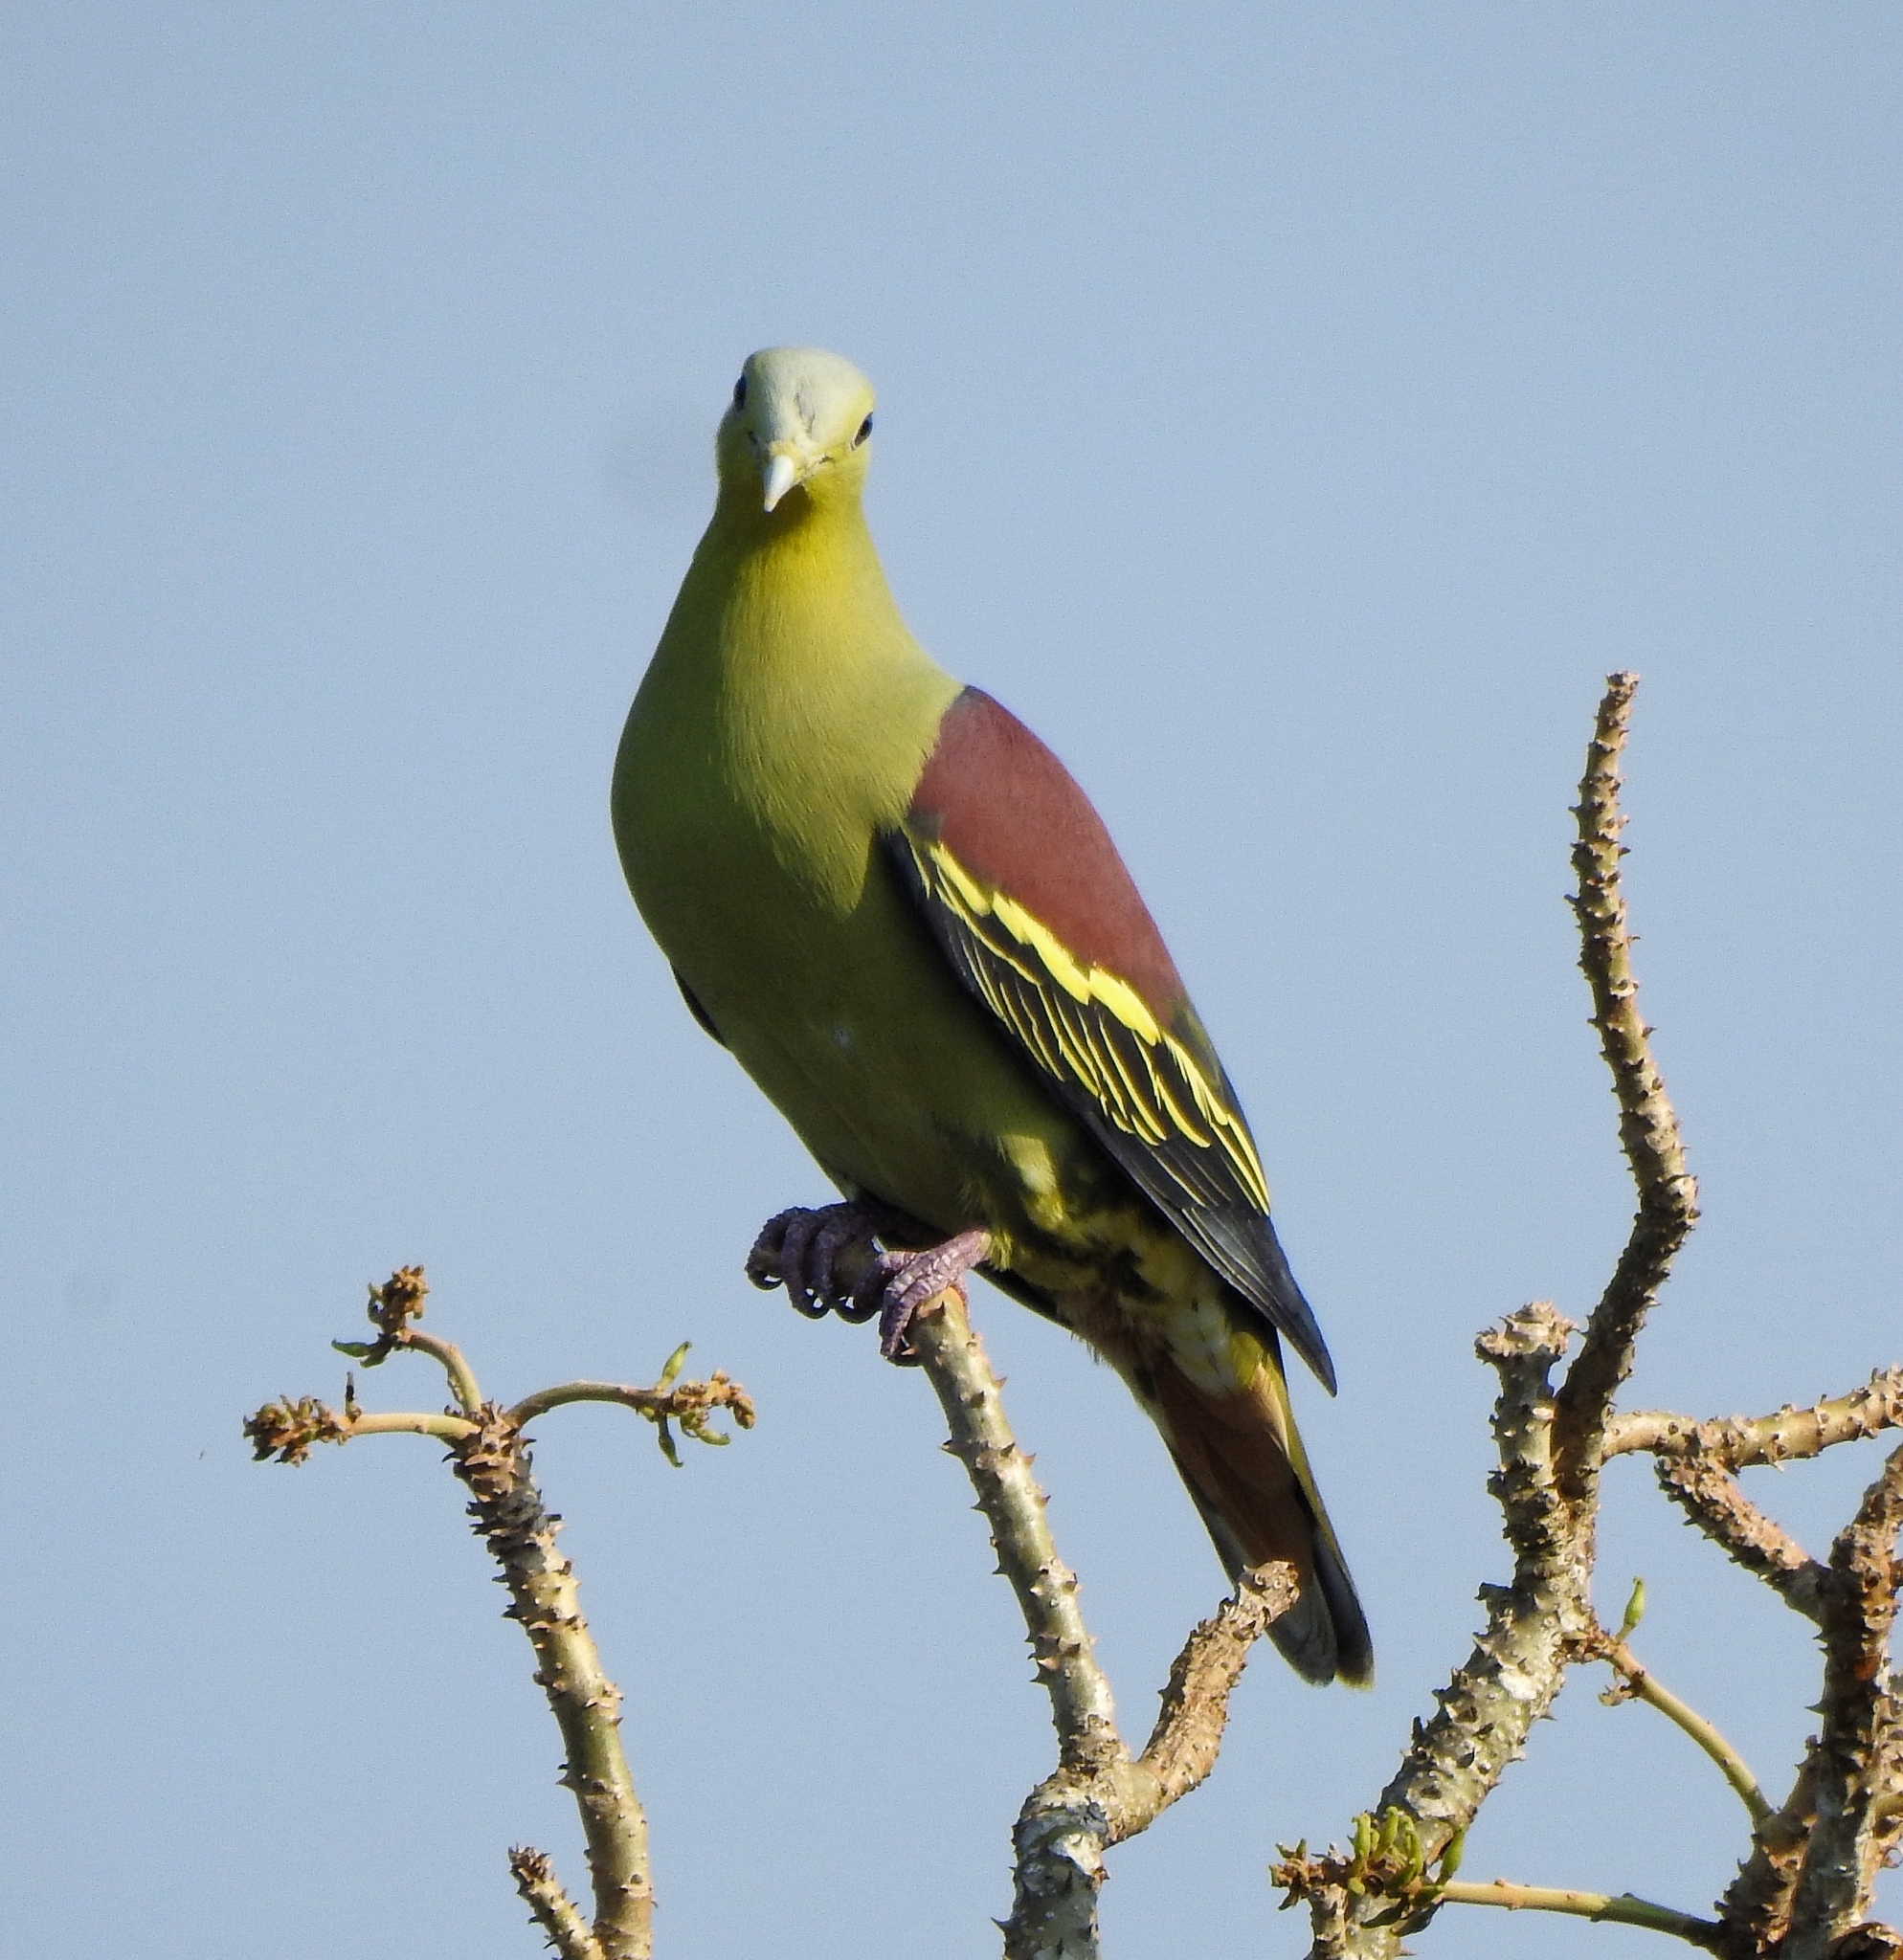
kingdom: Animalia
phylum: Chordata
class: Aves
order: Columbiformes
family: Columbidae
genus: Treron
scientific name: Treron affinis
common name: Grey-fronted green pigeon
